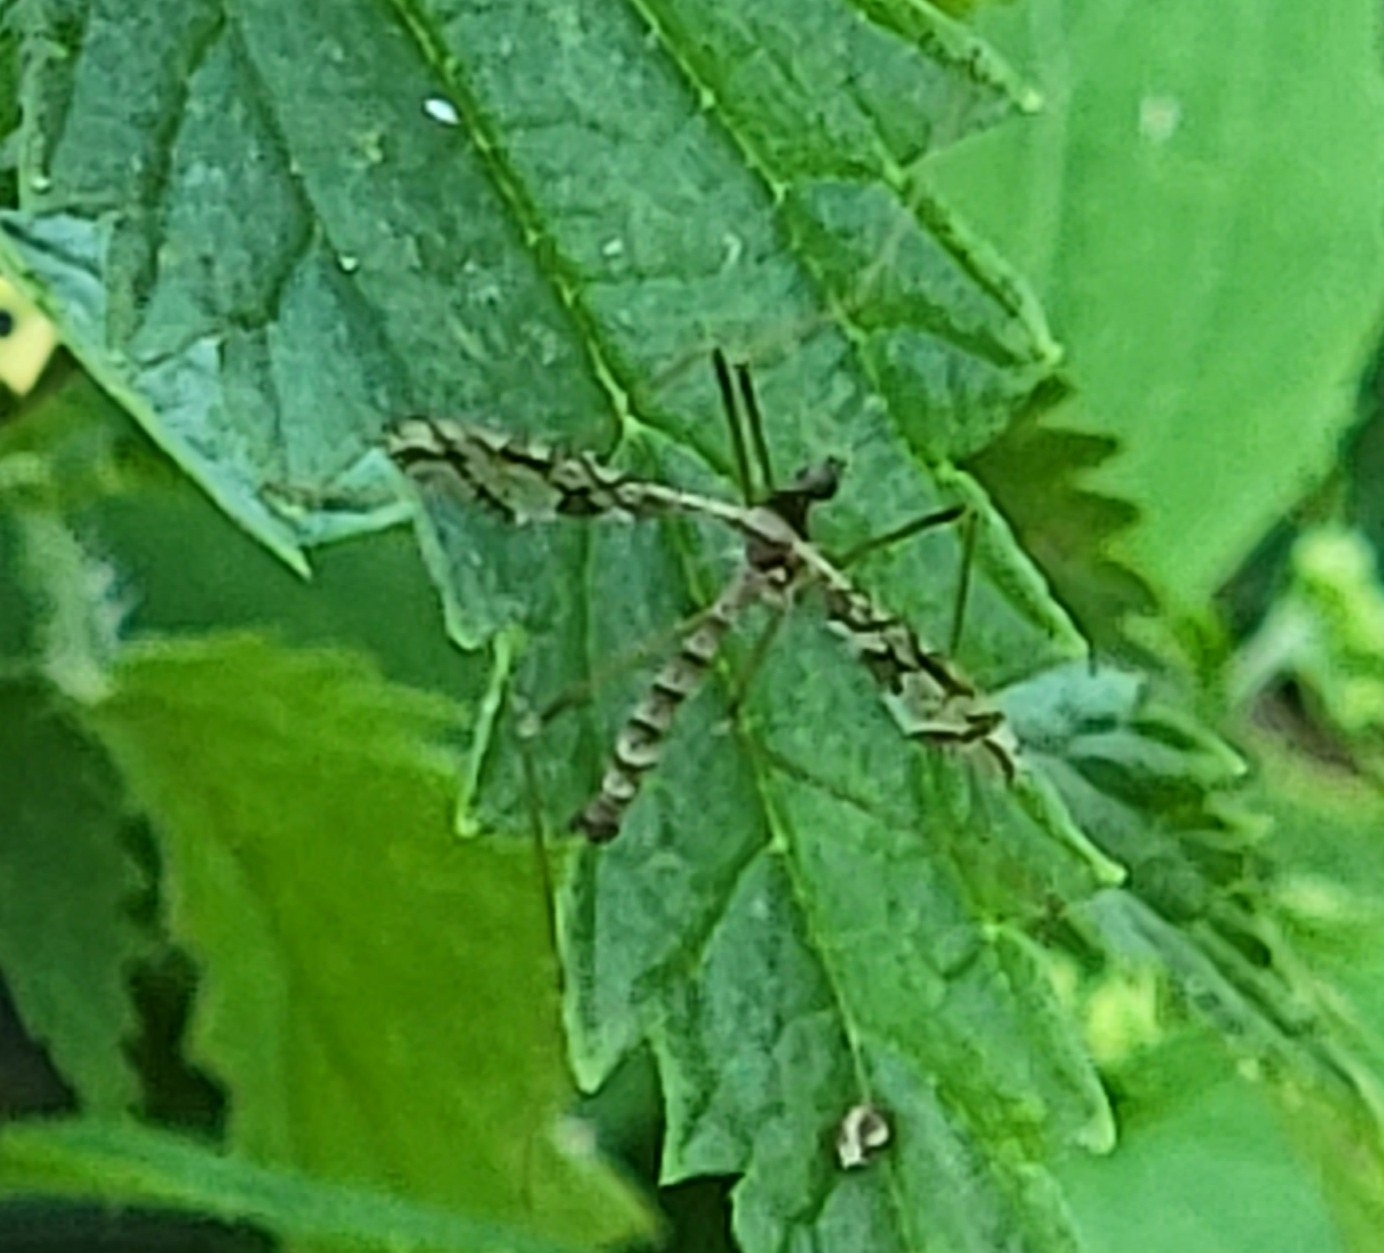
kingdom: Animalia
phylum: Arthropoda
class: Insecta
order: Diptera
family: Limoniidae
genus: Epiphragma
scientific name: Epiphragma solatrix
